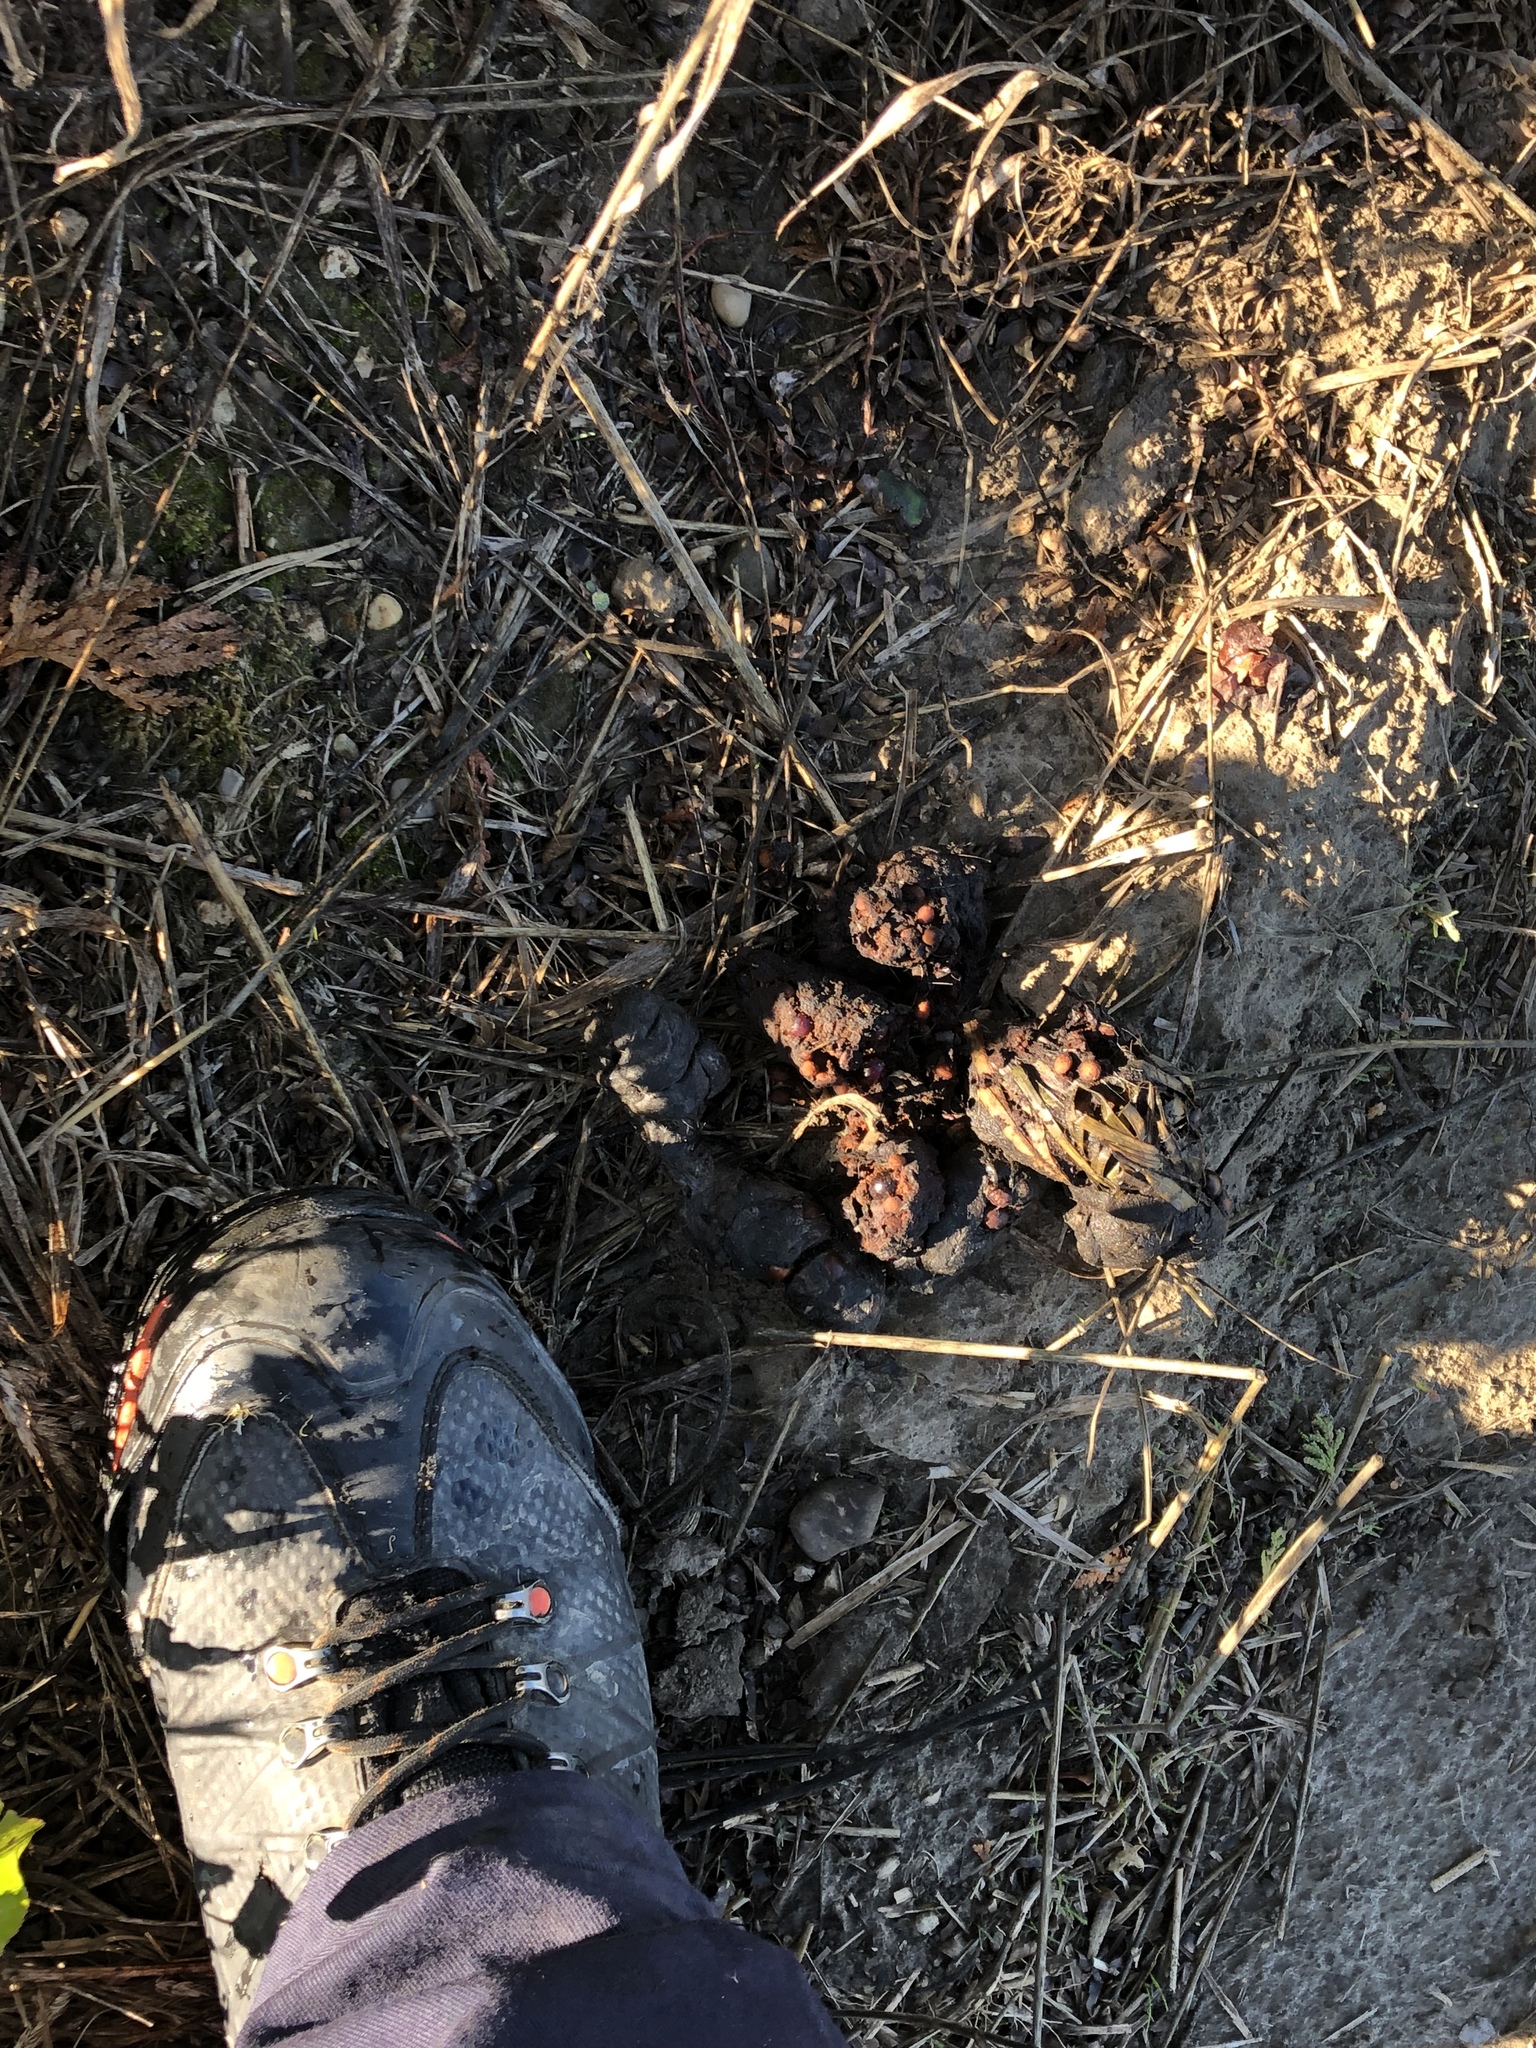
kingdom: Animalia
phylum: Chordata
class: Mammalia
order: Carnivora
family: Ursidae
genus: Ursus
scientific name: Ursus americanus
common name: American black bear
